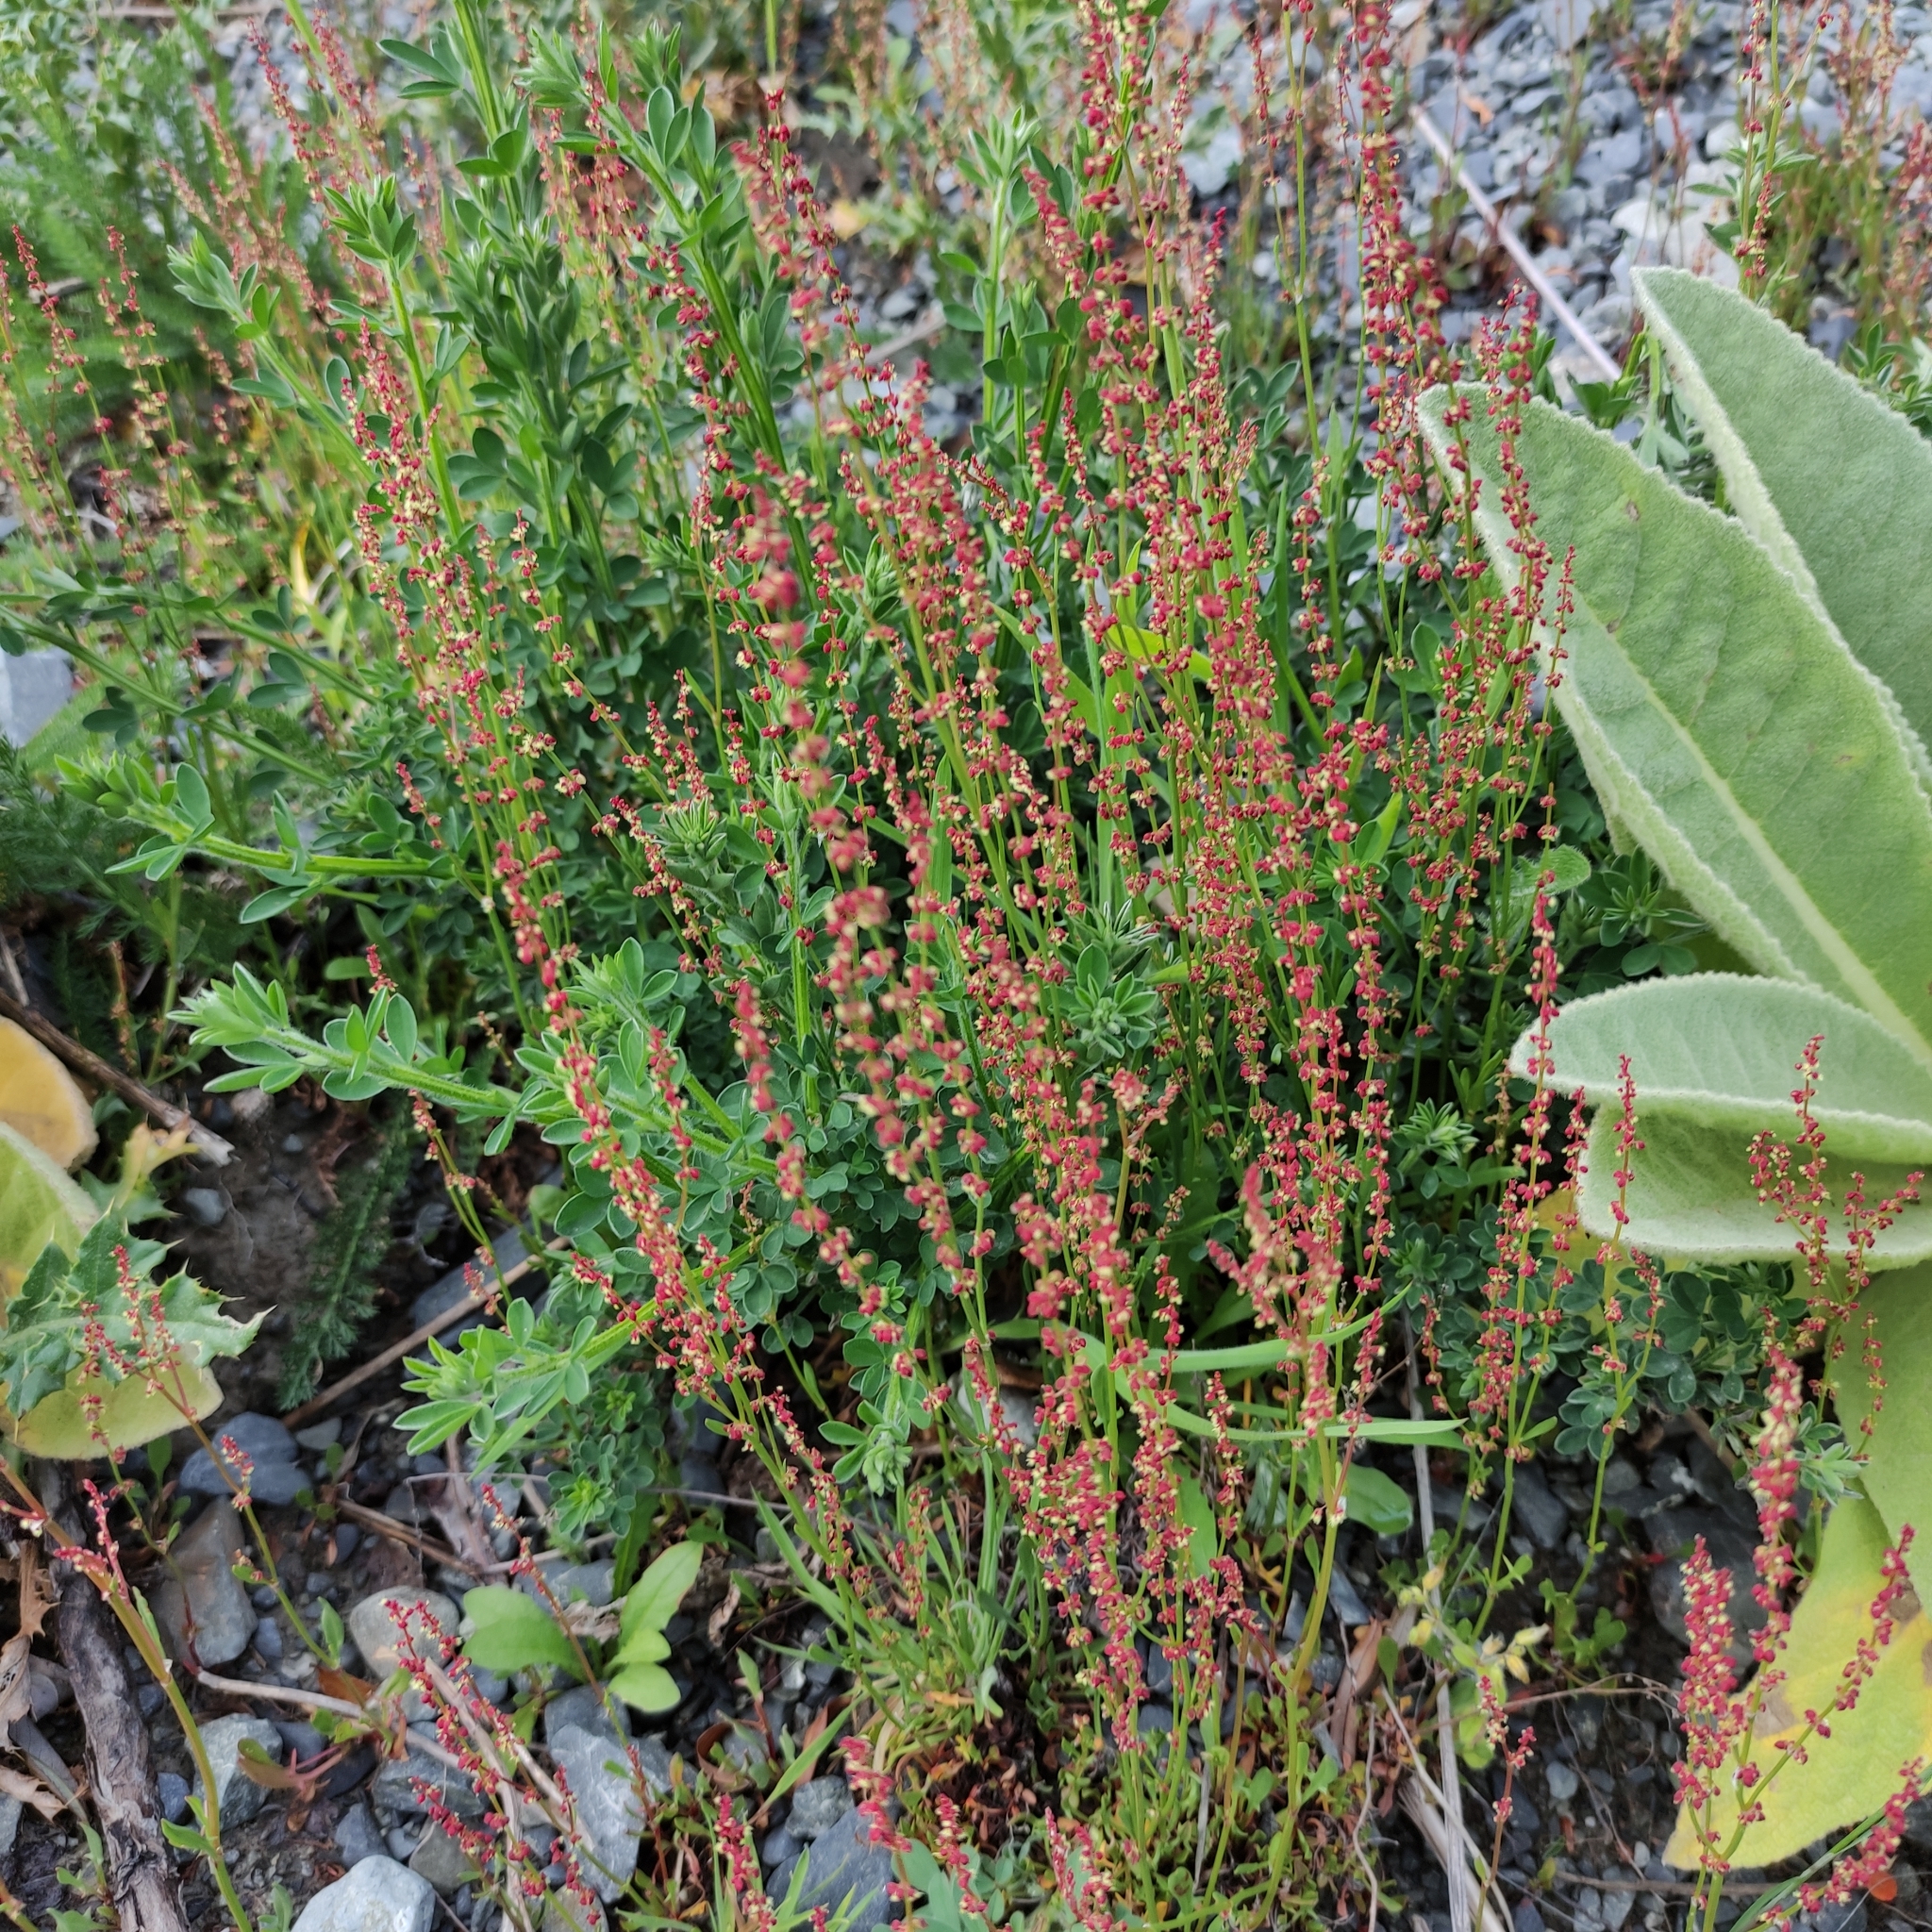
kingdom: Plantae
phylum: Tracheophyta
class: Magnoliopsida
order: Caryophyllales
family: Polygonaceae
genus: Rumex
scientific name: Rumex acetosella
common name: Common sheep sorrel
